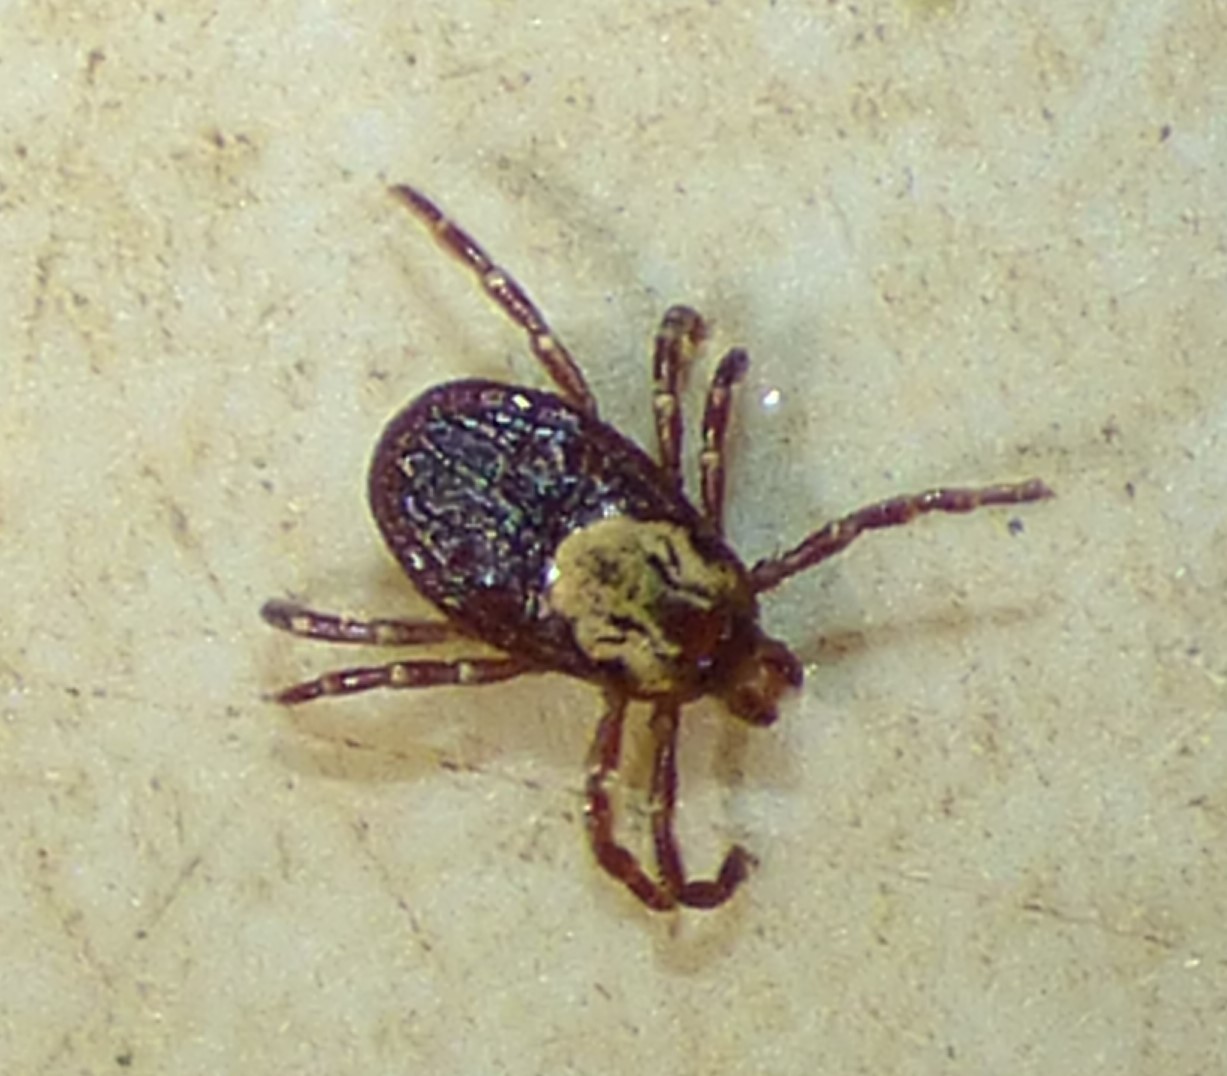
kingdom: Animalia
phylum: Arthropoda
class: Arachnida
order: Ixodida
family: Ixodidae
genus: Dermacentor
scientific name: Dermacentor variabilis
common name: American dog tick
